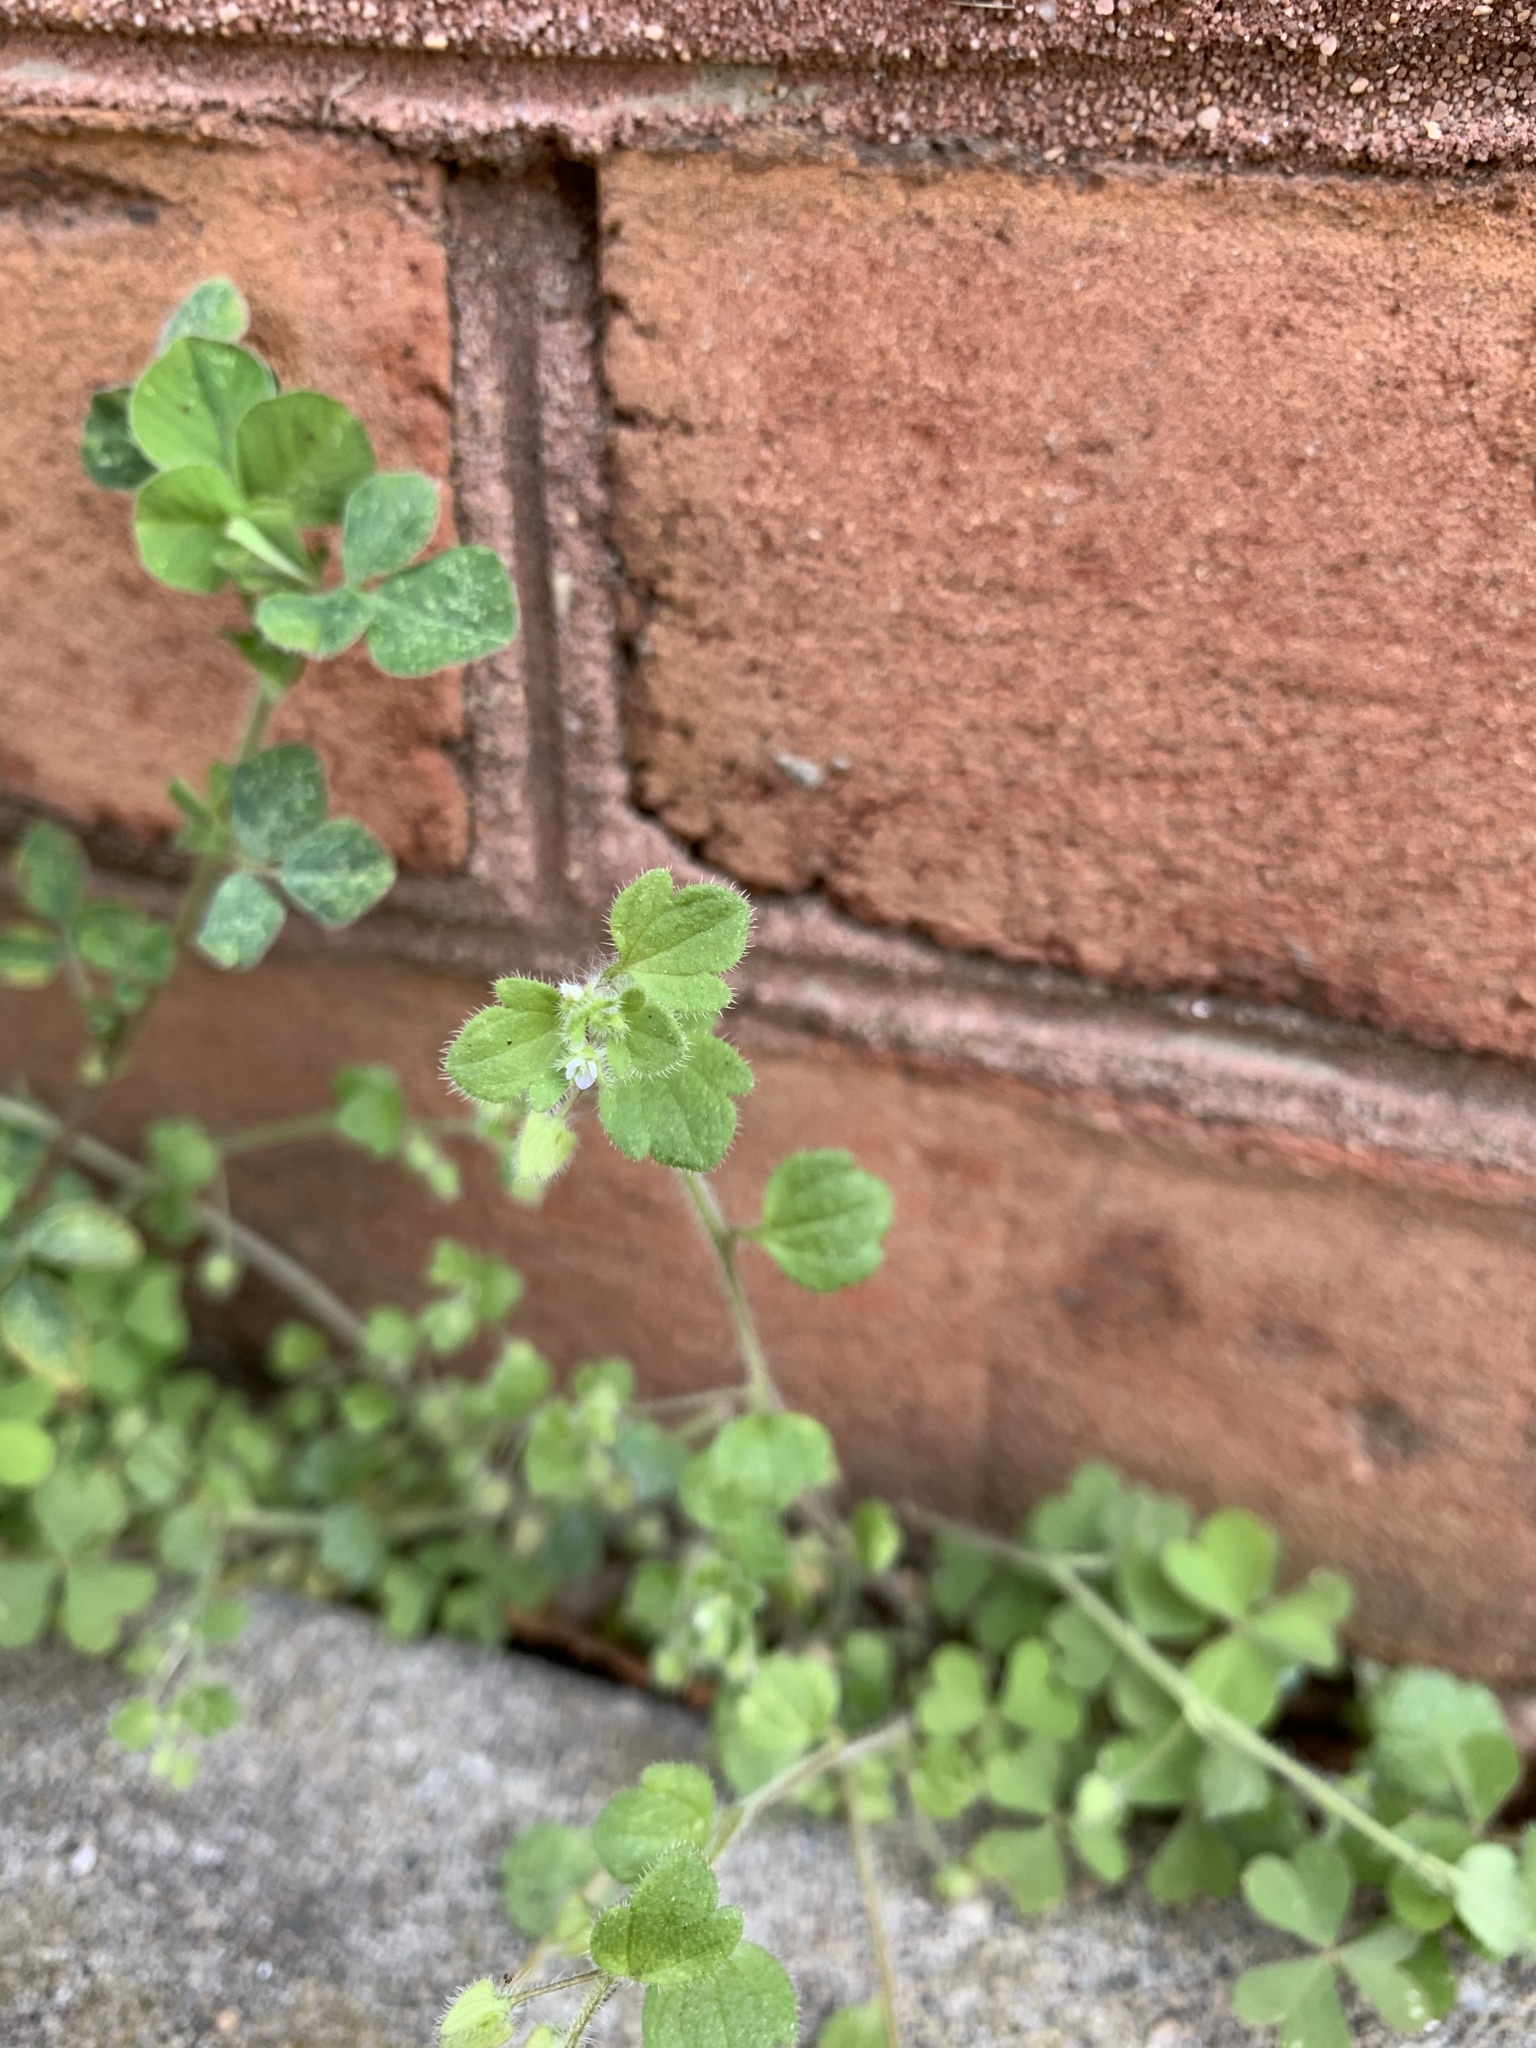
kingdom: Plantae
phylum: Tracheophyta
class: Magnoliopsida
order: Lamiales
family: Plantaginaceae
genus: Veronica
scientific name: Veronica sublobata
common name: False ivy-leaved speedwell
